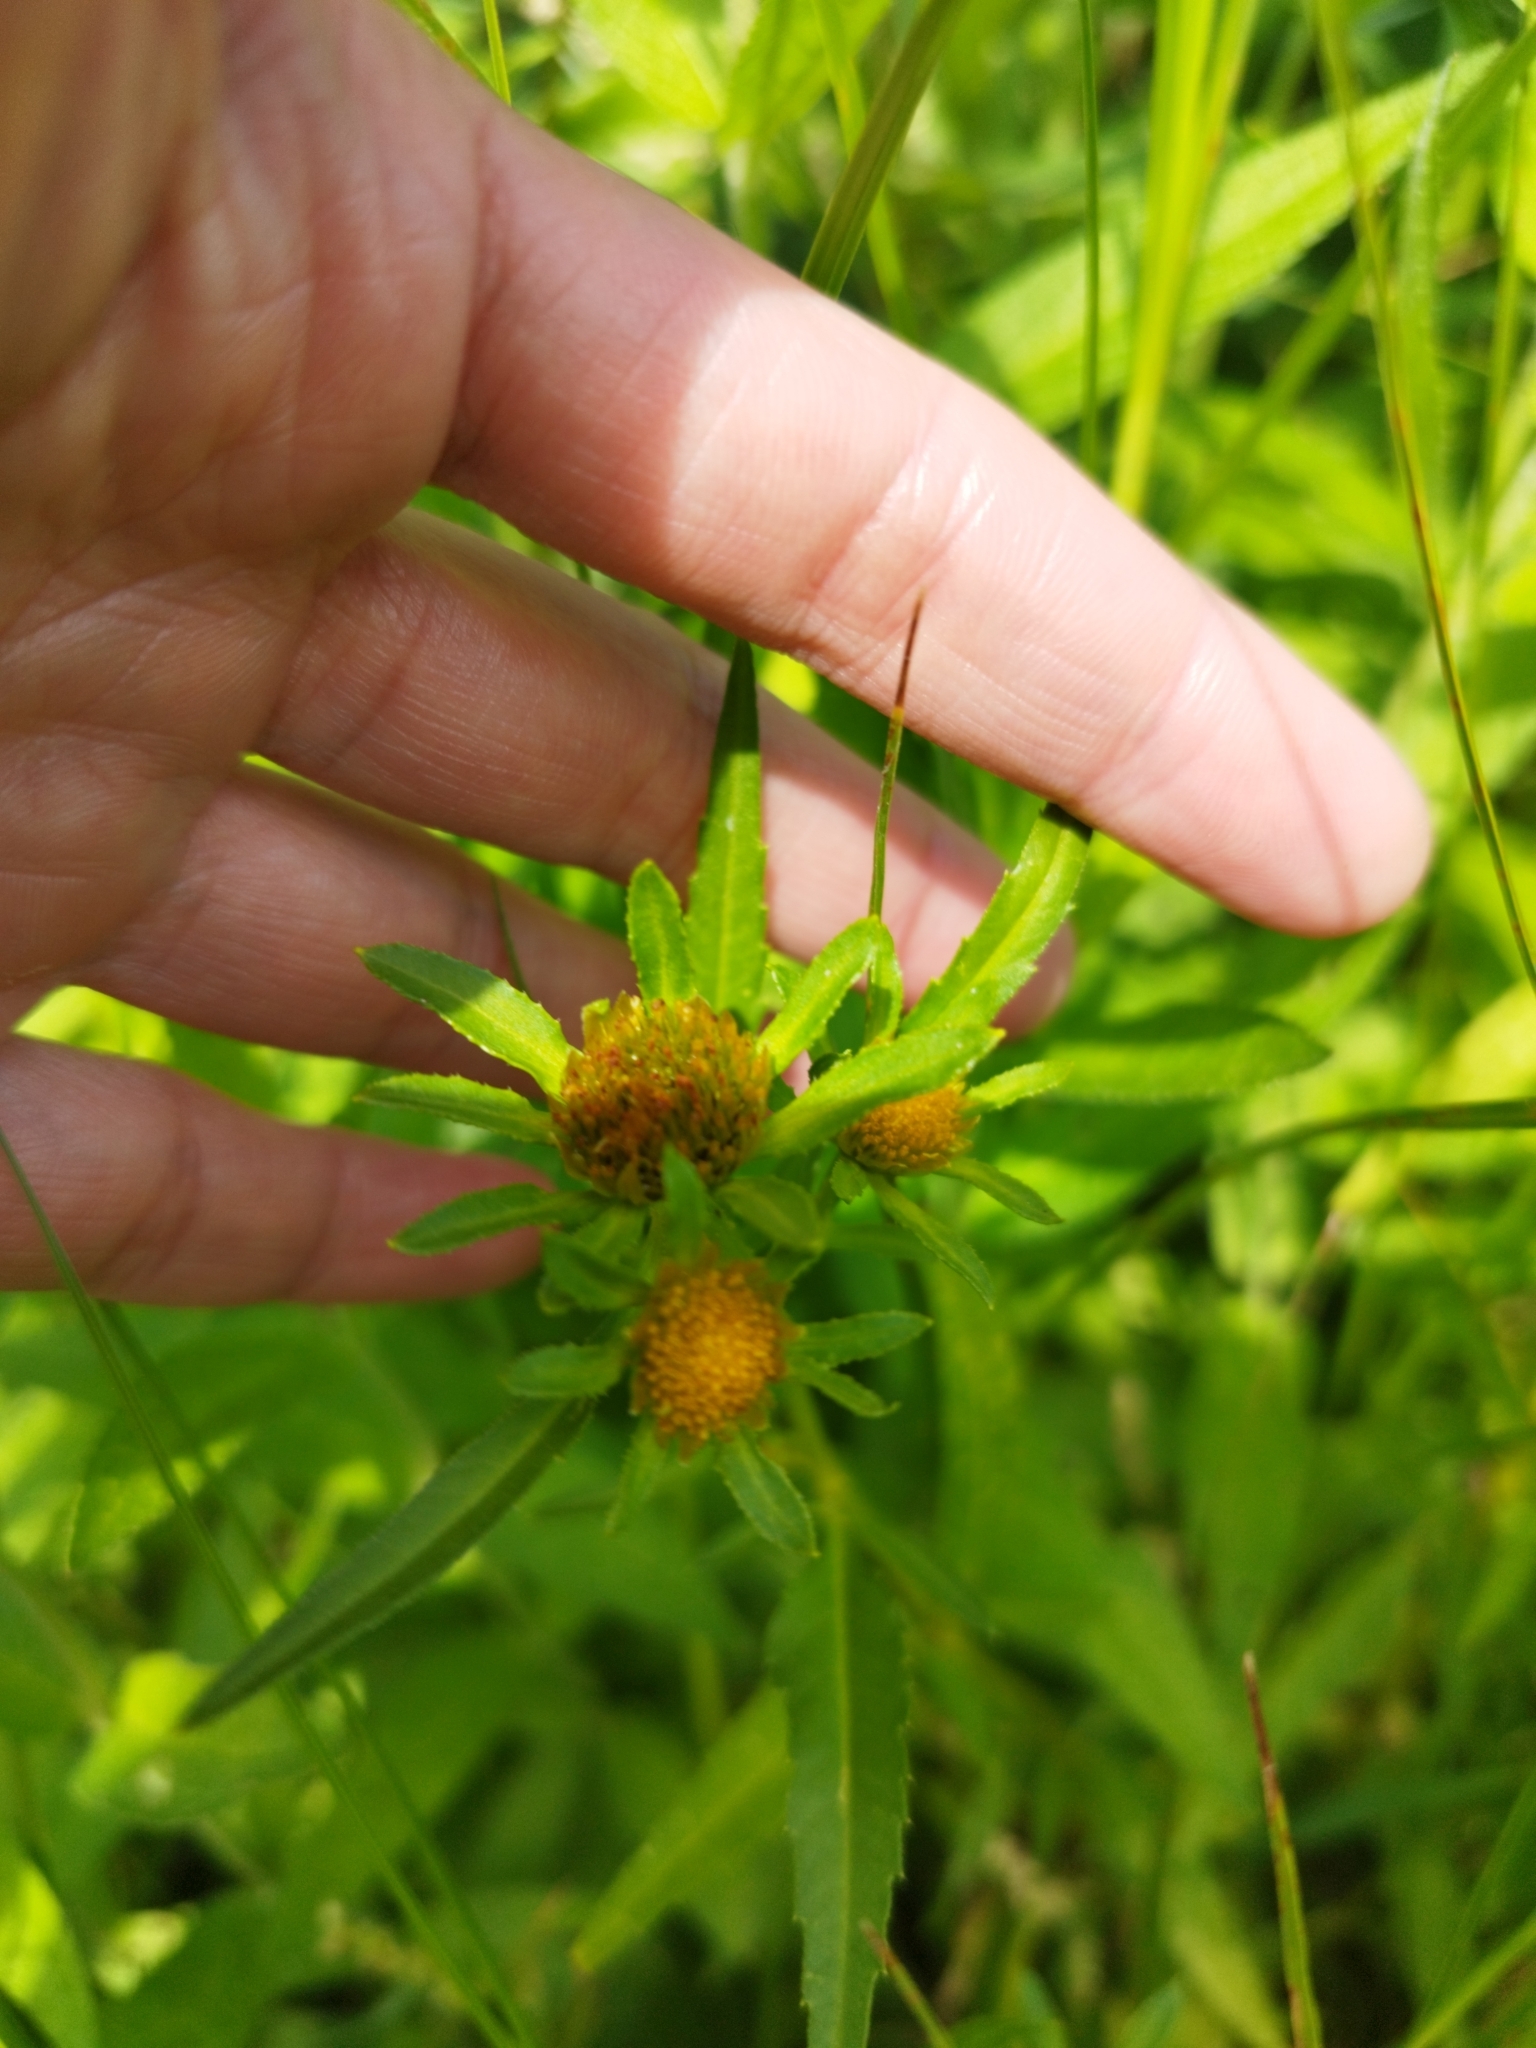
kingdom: Plantae
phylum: Tracheophyta
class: Magnoliopsida
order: Asterales
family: Asteraceae
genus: Bidens
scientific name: Bidens radiata
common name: Radiating bur-marigold
